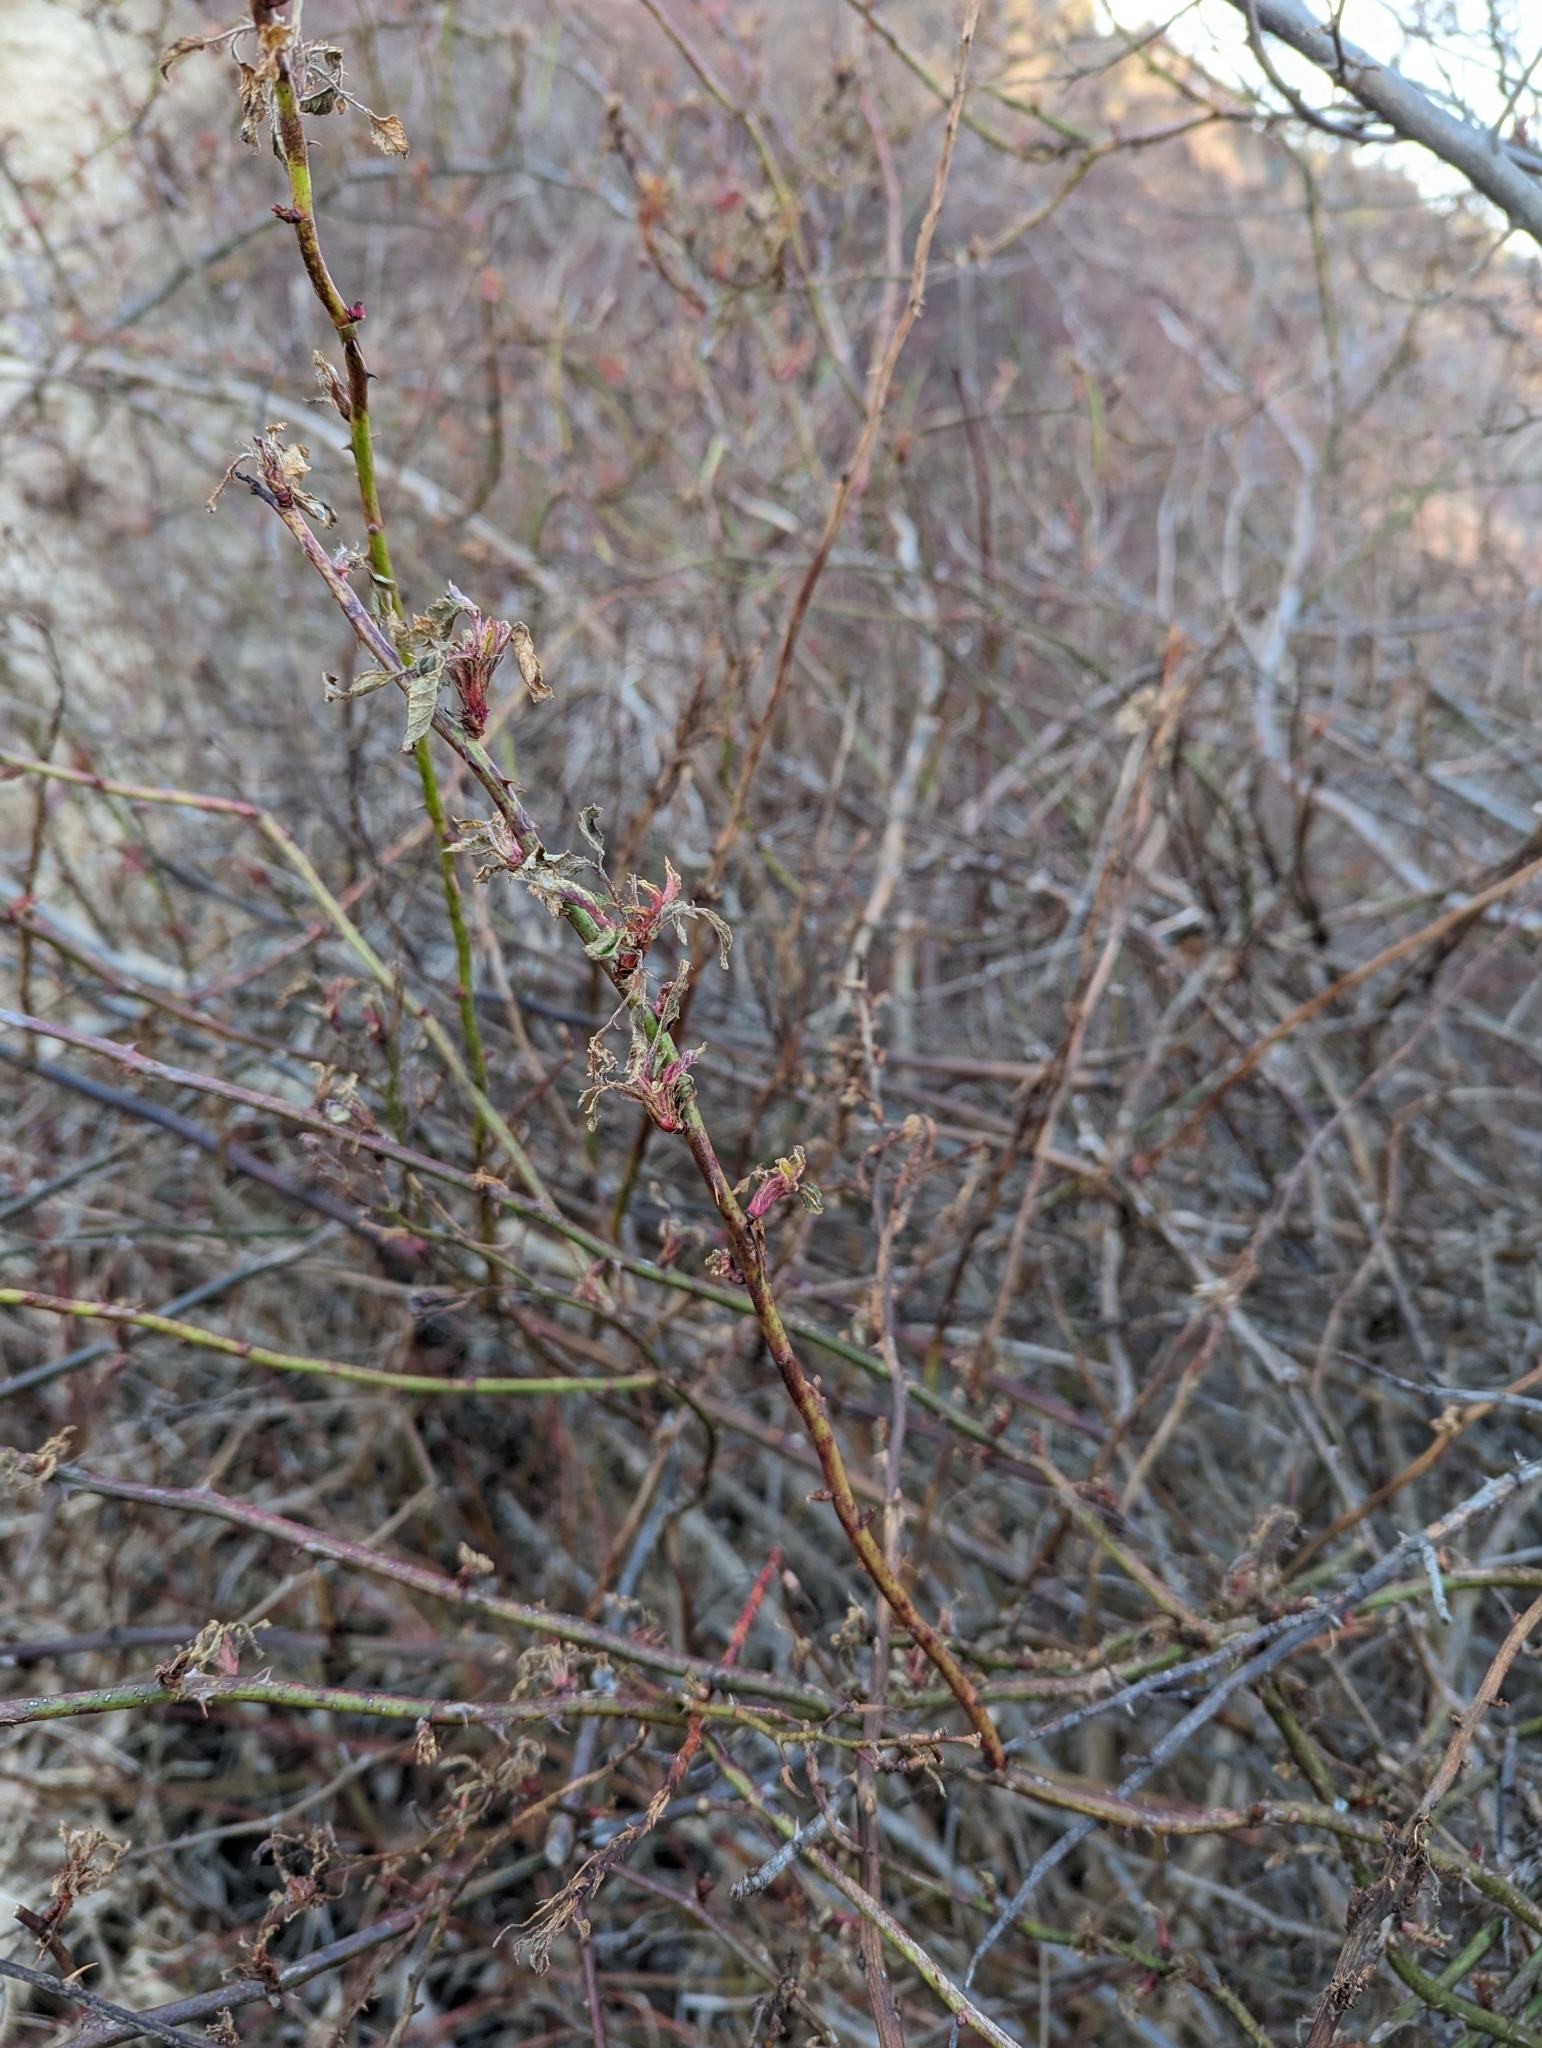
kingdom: Viruses
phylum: Negarnaviricota
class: Ellioviricetes
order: Bunyavirales
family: Fimoviridae
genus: Emaravirus
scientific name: Emaravirus rosae
